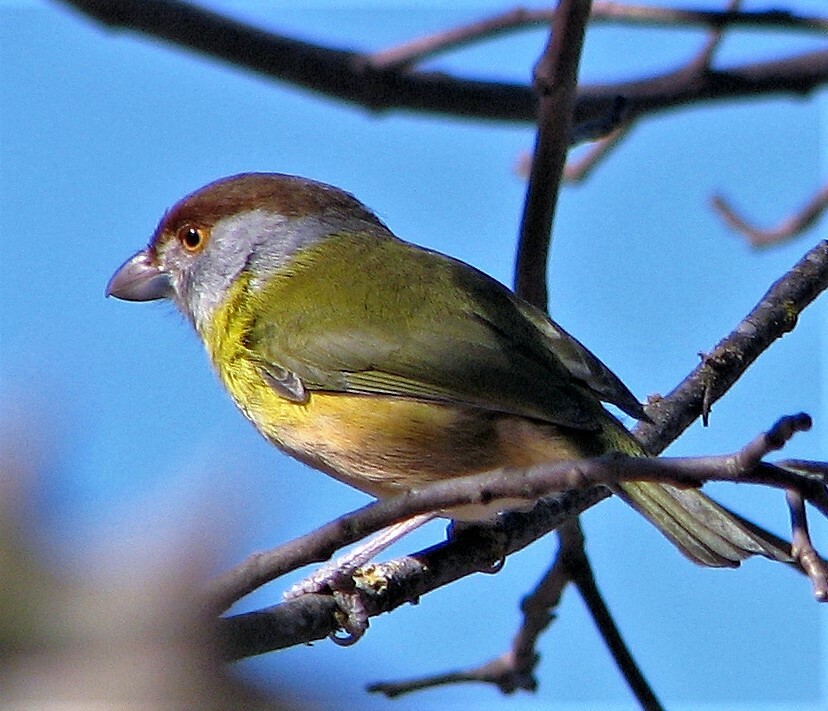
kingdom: Animalia
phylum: Chordata
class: Aves
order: Passeriformes
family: Vireonidae
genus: Cyclarhis
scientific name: Cyclarhis gujanensis
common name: Rufous-browed peppershrike
